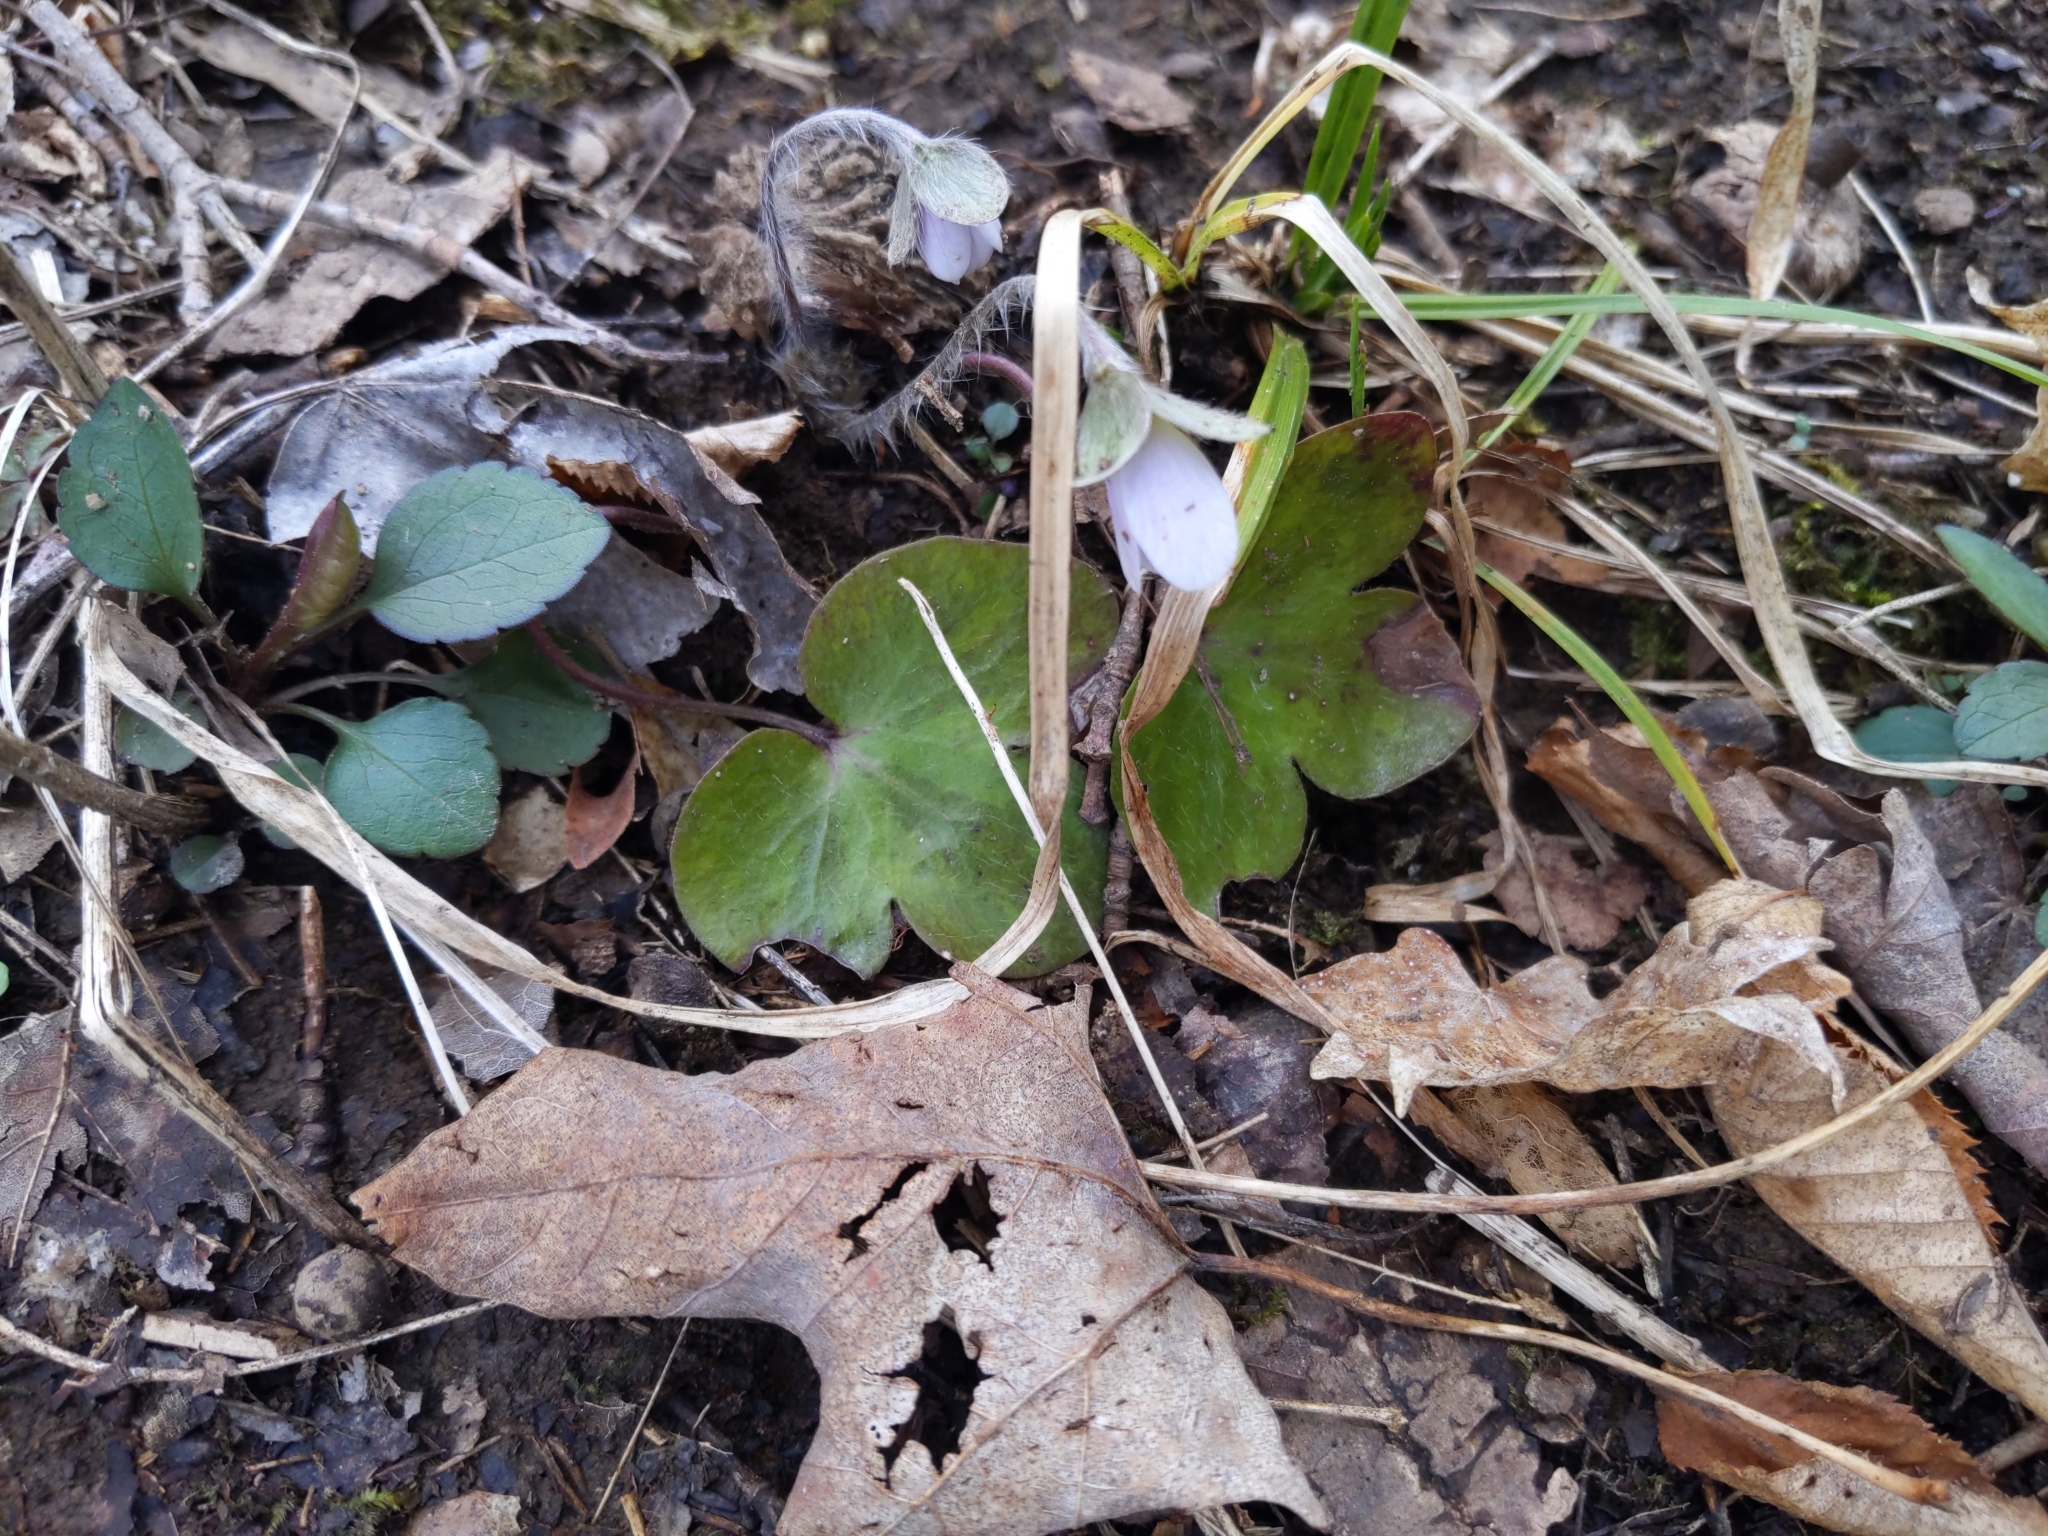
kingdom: Plantae
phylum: Tracheophyta
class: Magnoliopsida
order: Ranunculales
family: Ranunculaceae
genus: Hepatica
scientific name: Hepatica americana
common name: American hepatica
